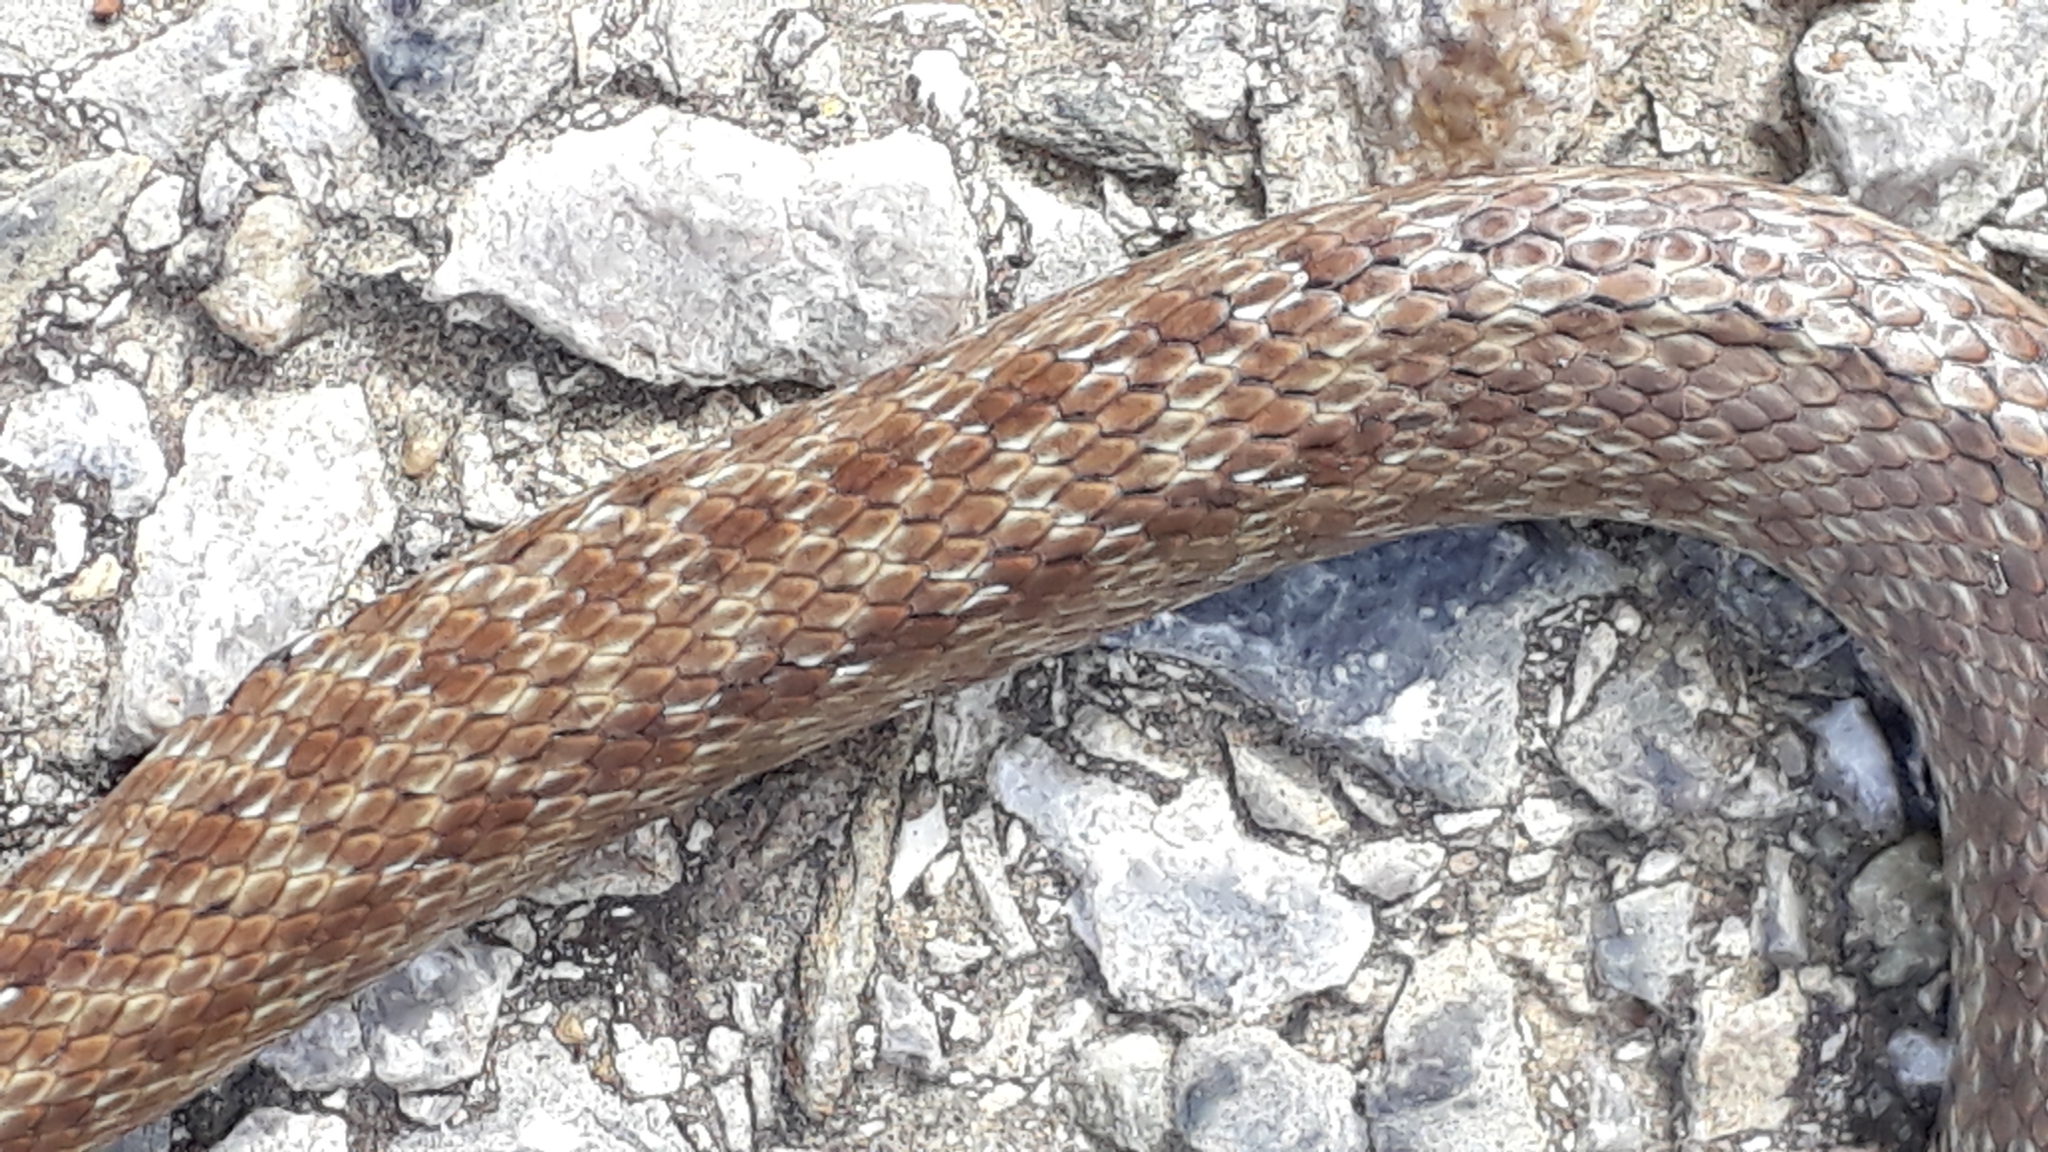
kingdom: Animalia
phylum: Chordata
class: Squamata
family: Colubridae
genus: Zamenis
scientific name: Zamenis longissimus
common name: Aesculapean snake
